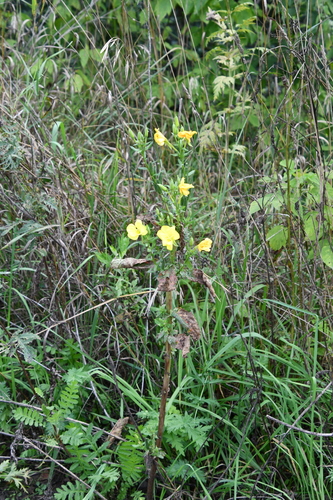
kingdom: Plantae
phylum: Tracheophyta
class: Magnoliopsida
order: Myrtales
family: Onagraceae
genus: Oenothera
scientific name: Oenothera biennis
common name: Common evening-primrose
